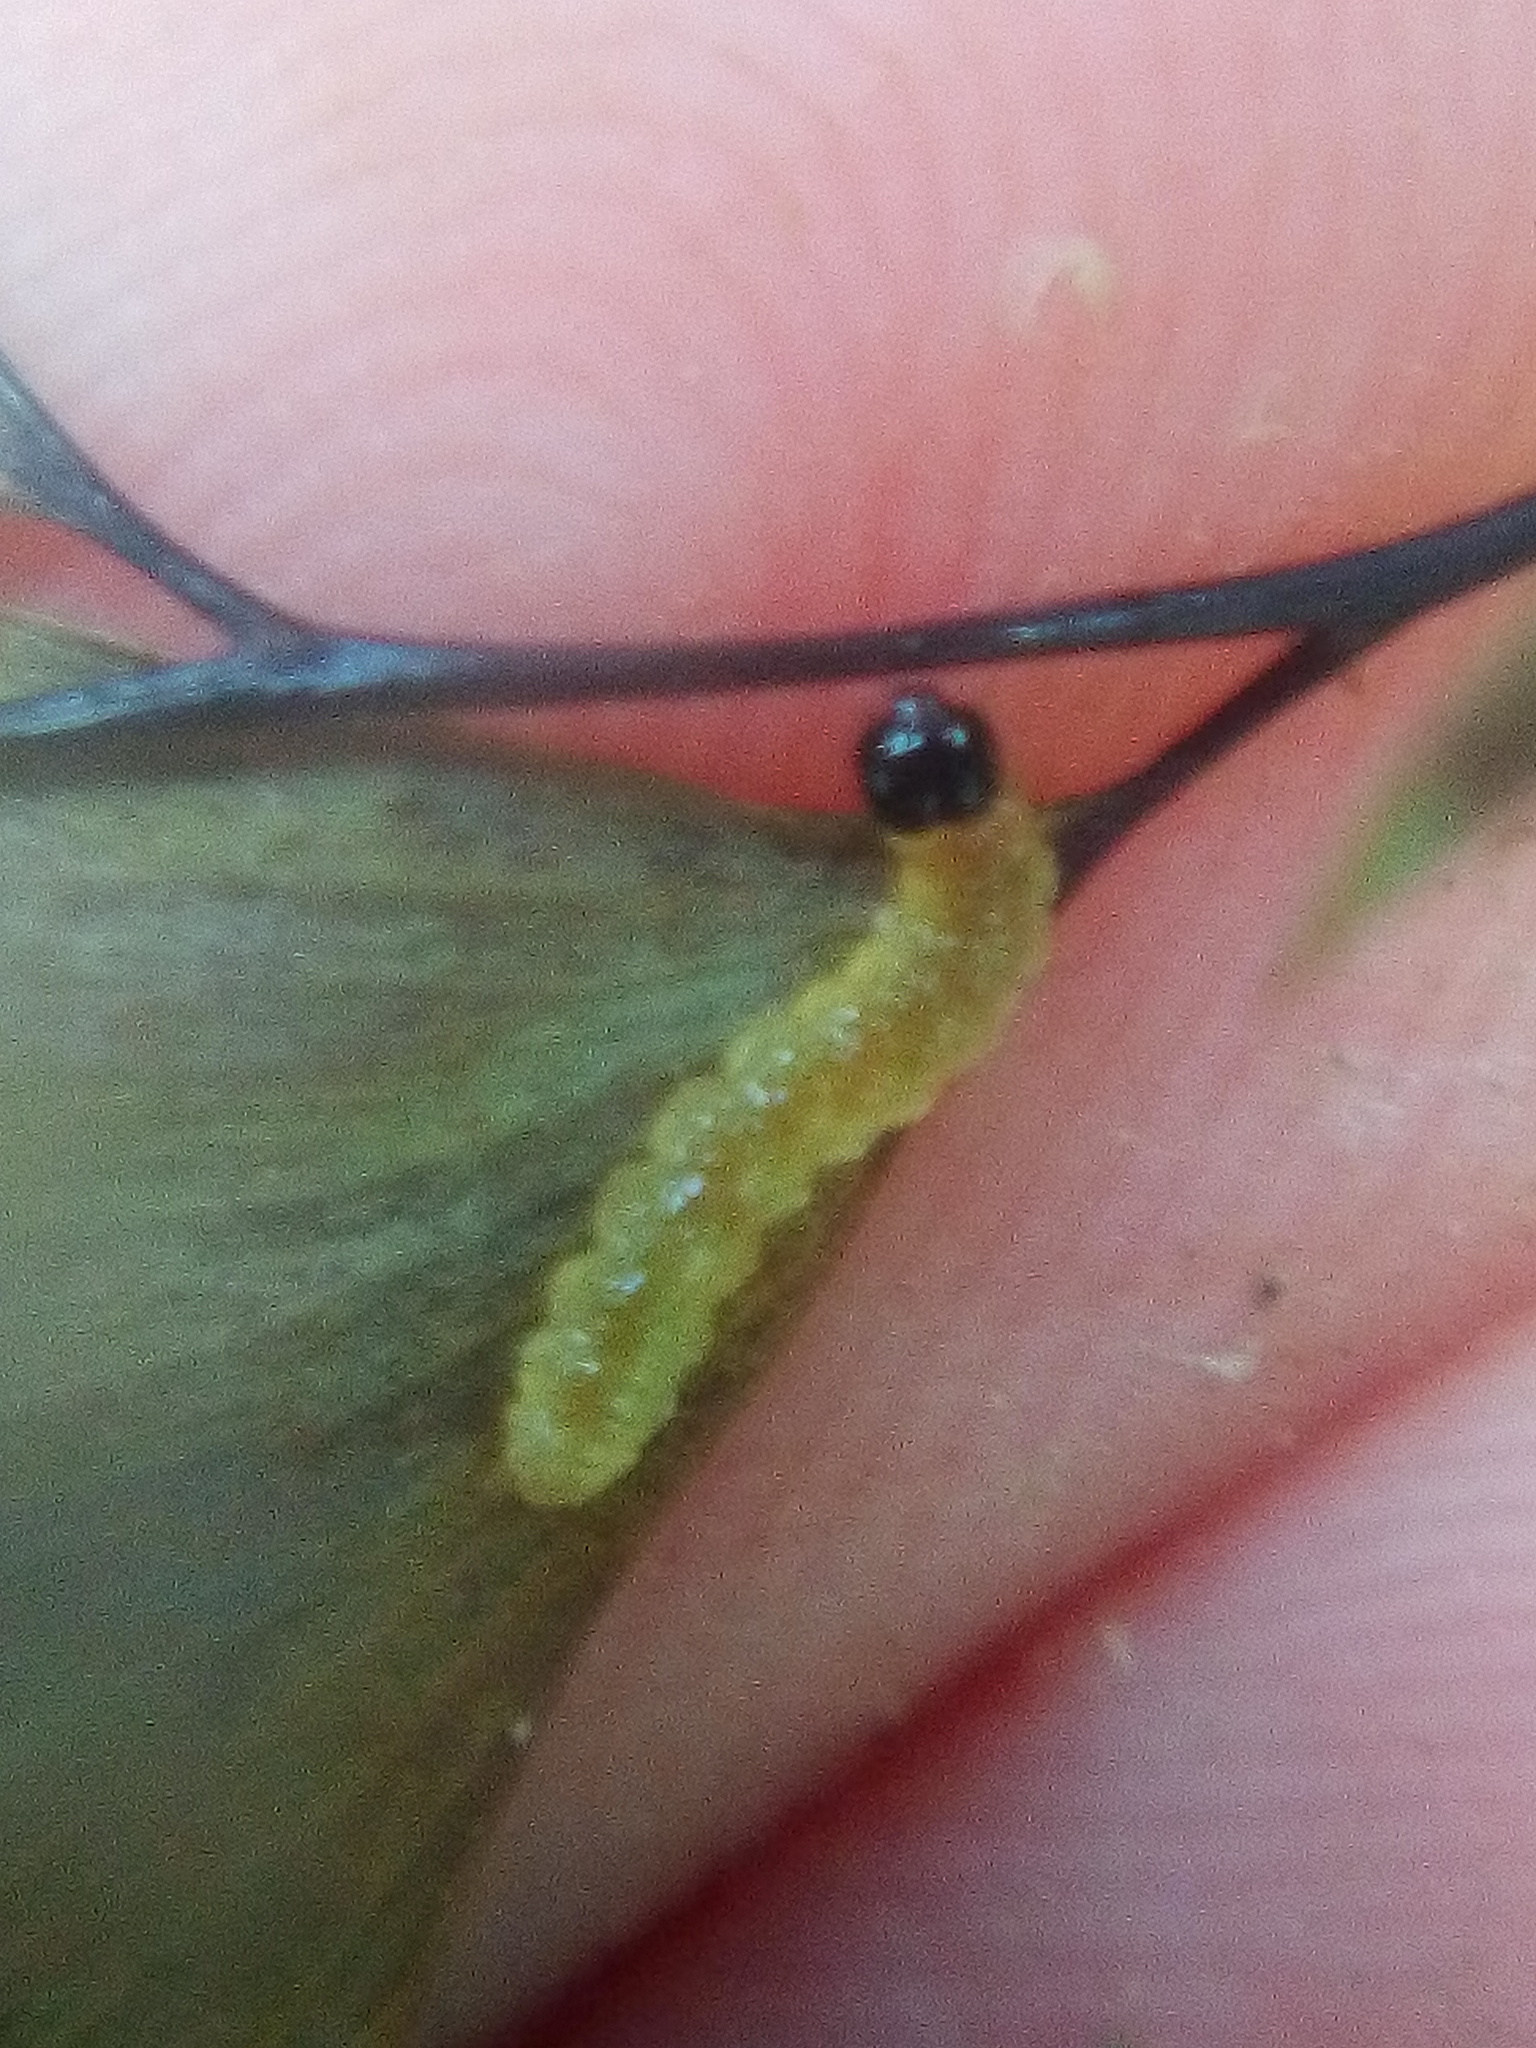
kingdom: Animalia
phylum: Arthropoda
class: Insecta
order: Lepidoptera
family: Pyralidae
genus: Musotima
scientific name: Musotima aduncalis
